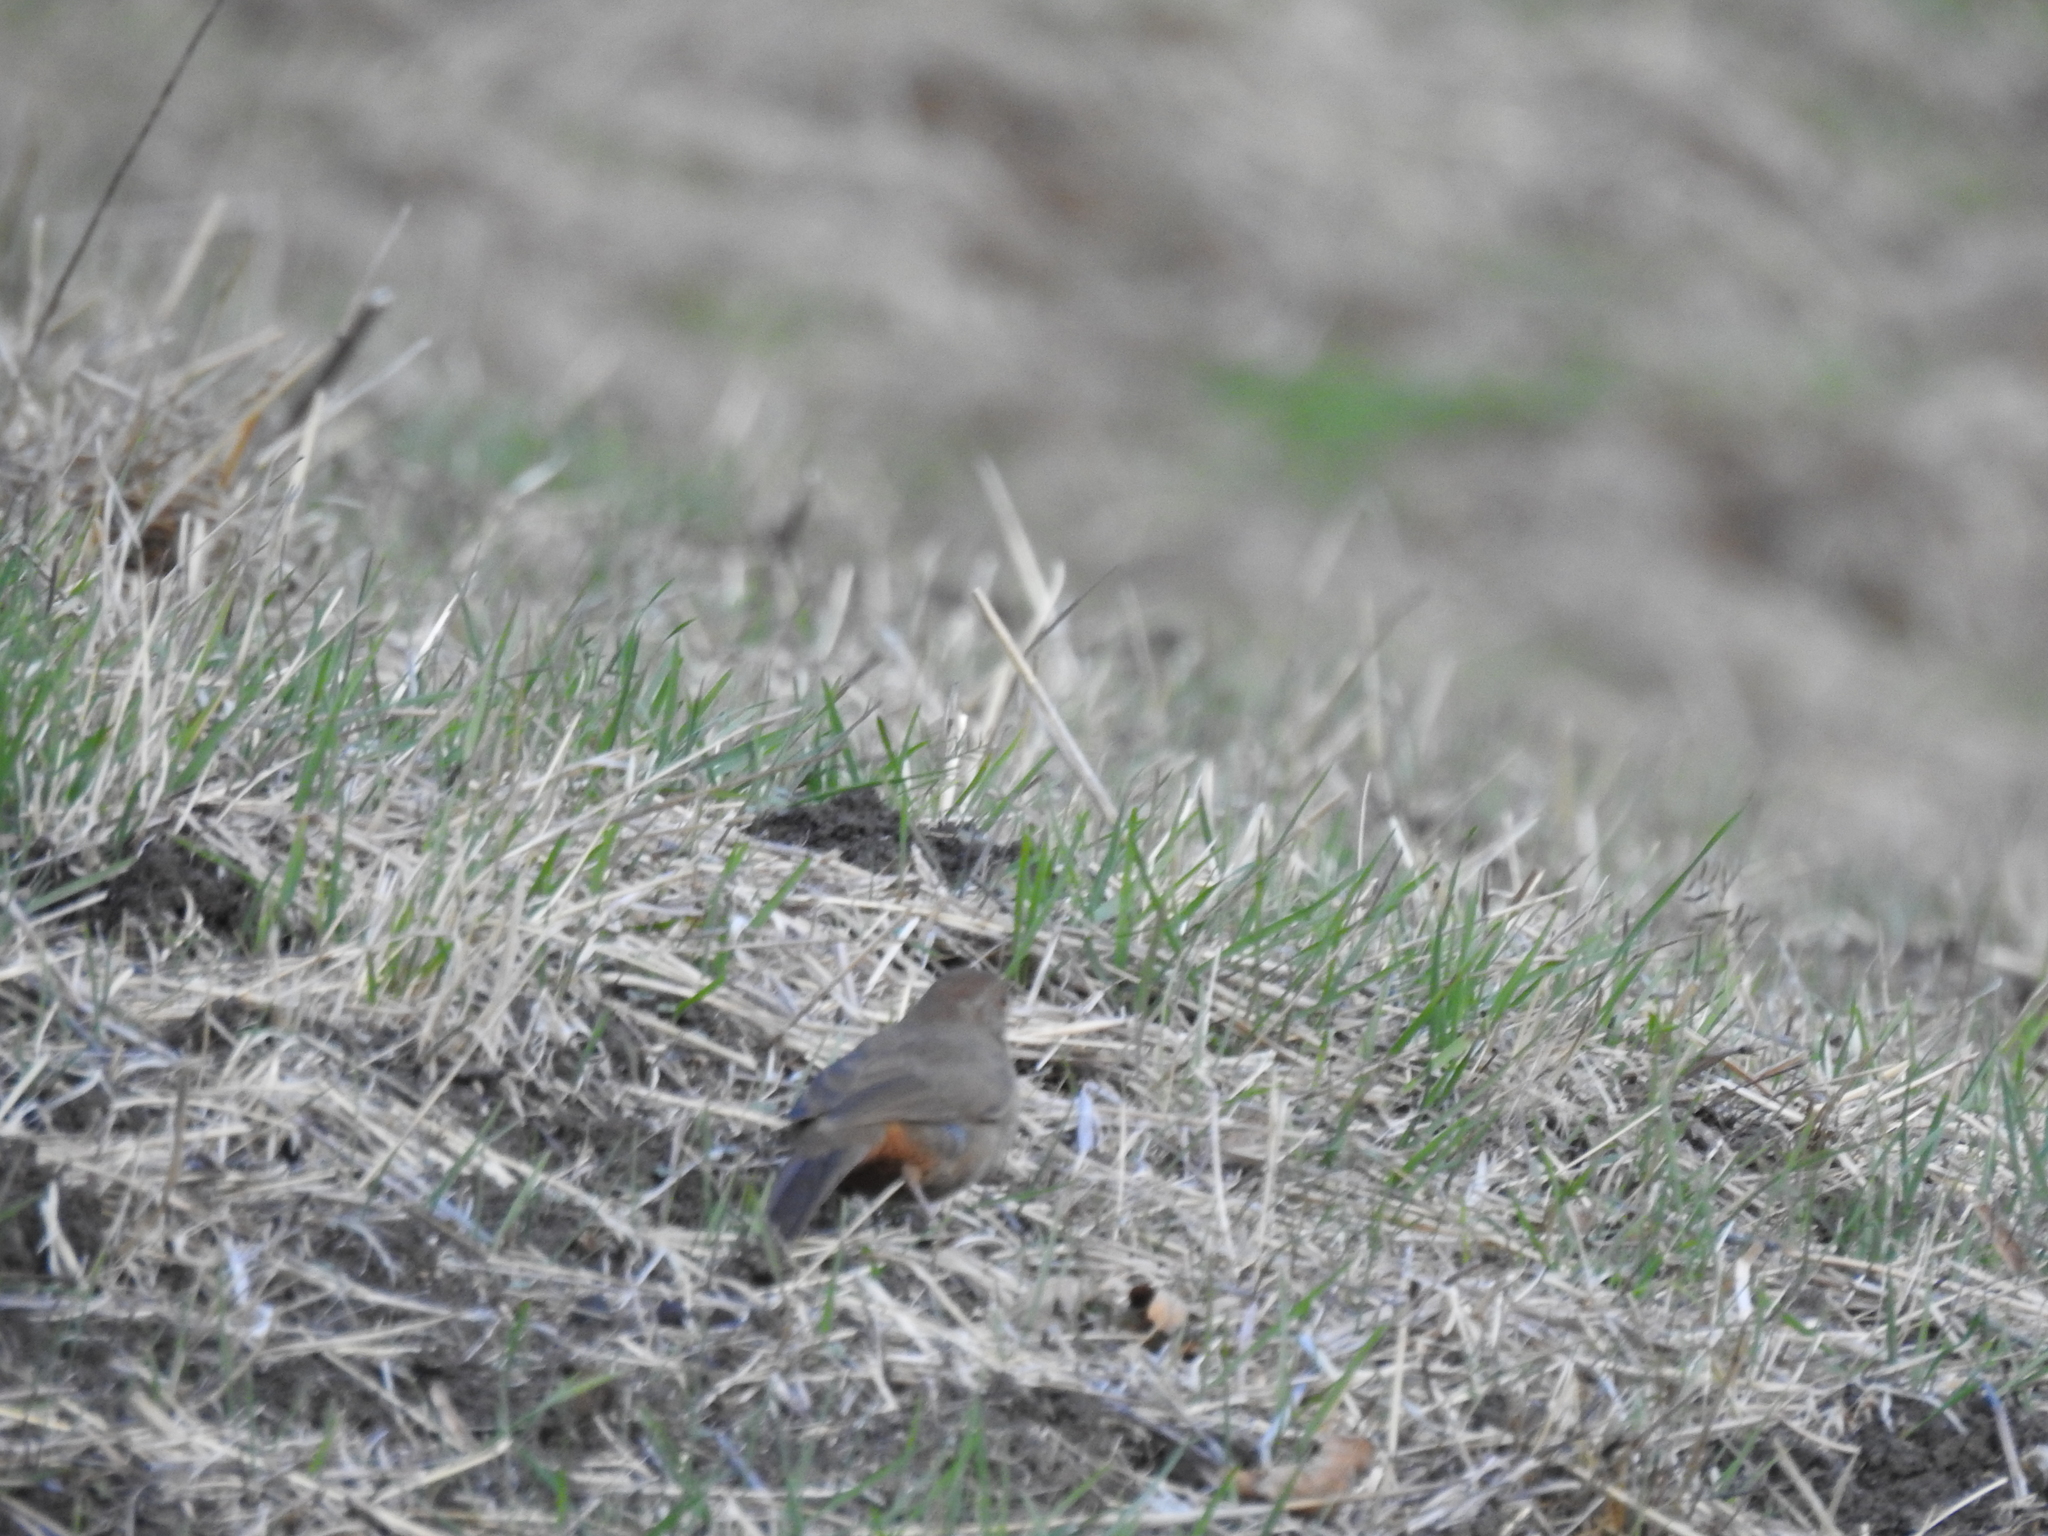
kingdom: Animalia
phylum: Chordata
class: Aves
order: Passeriformes
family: Passerellidae
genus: Melozone
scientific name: Melozone crissalis
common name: California towhee
